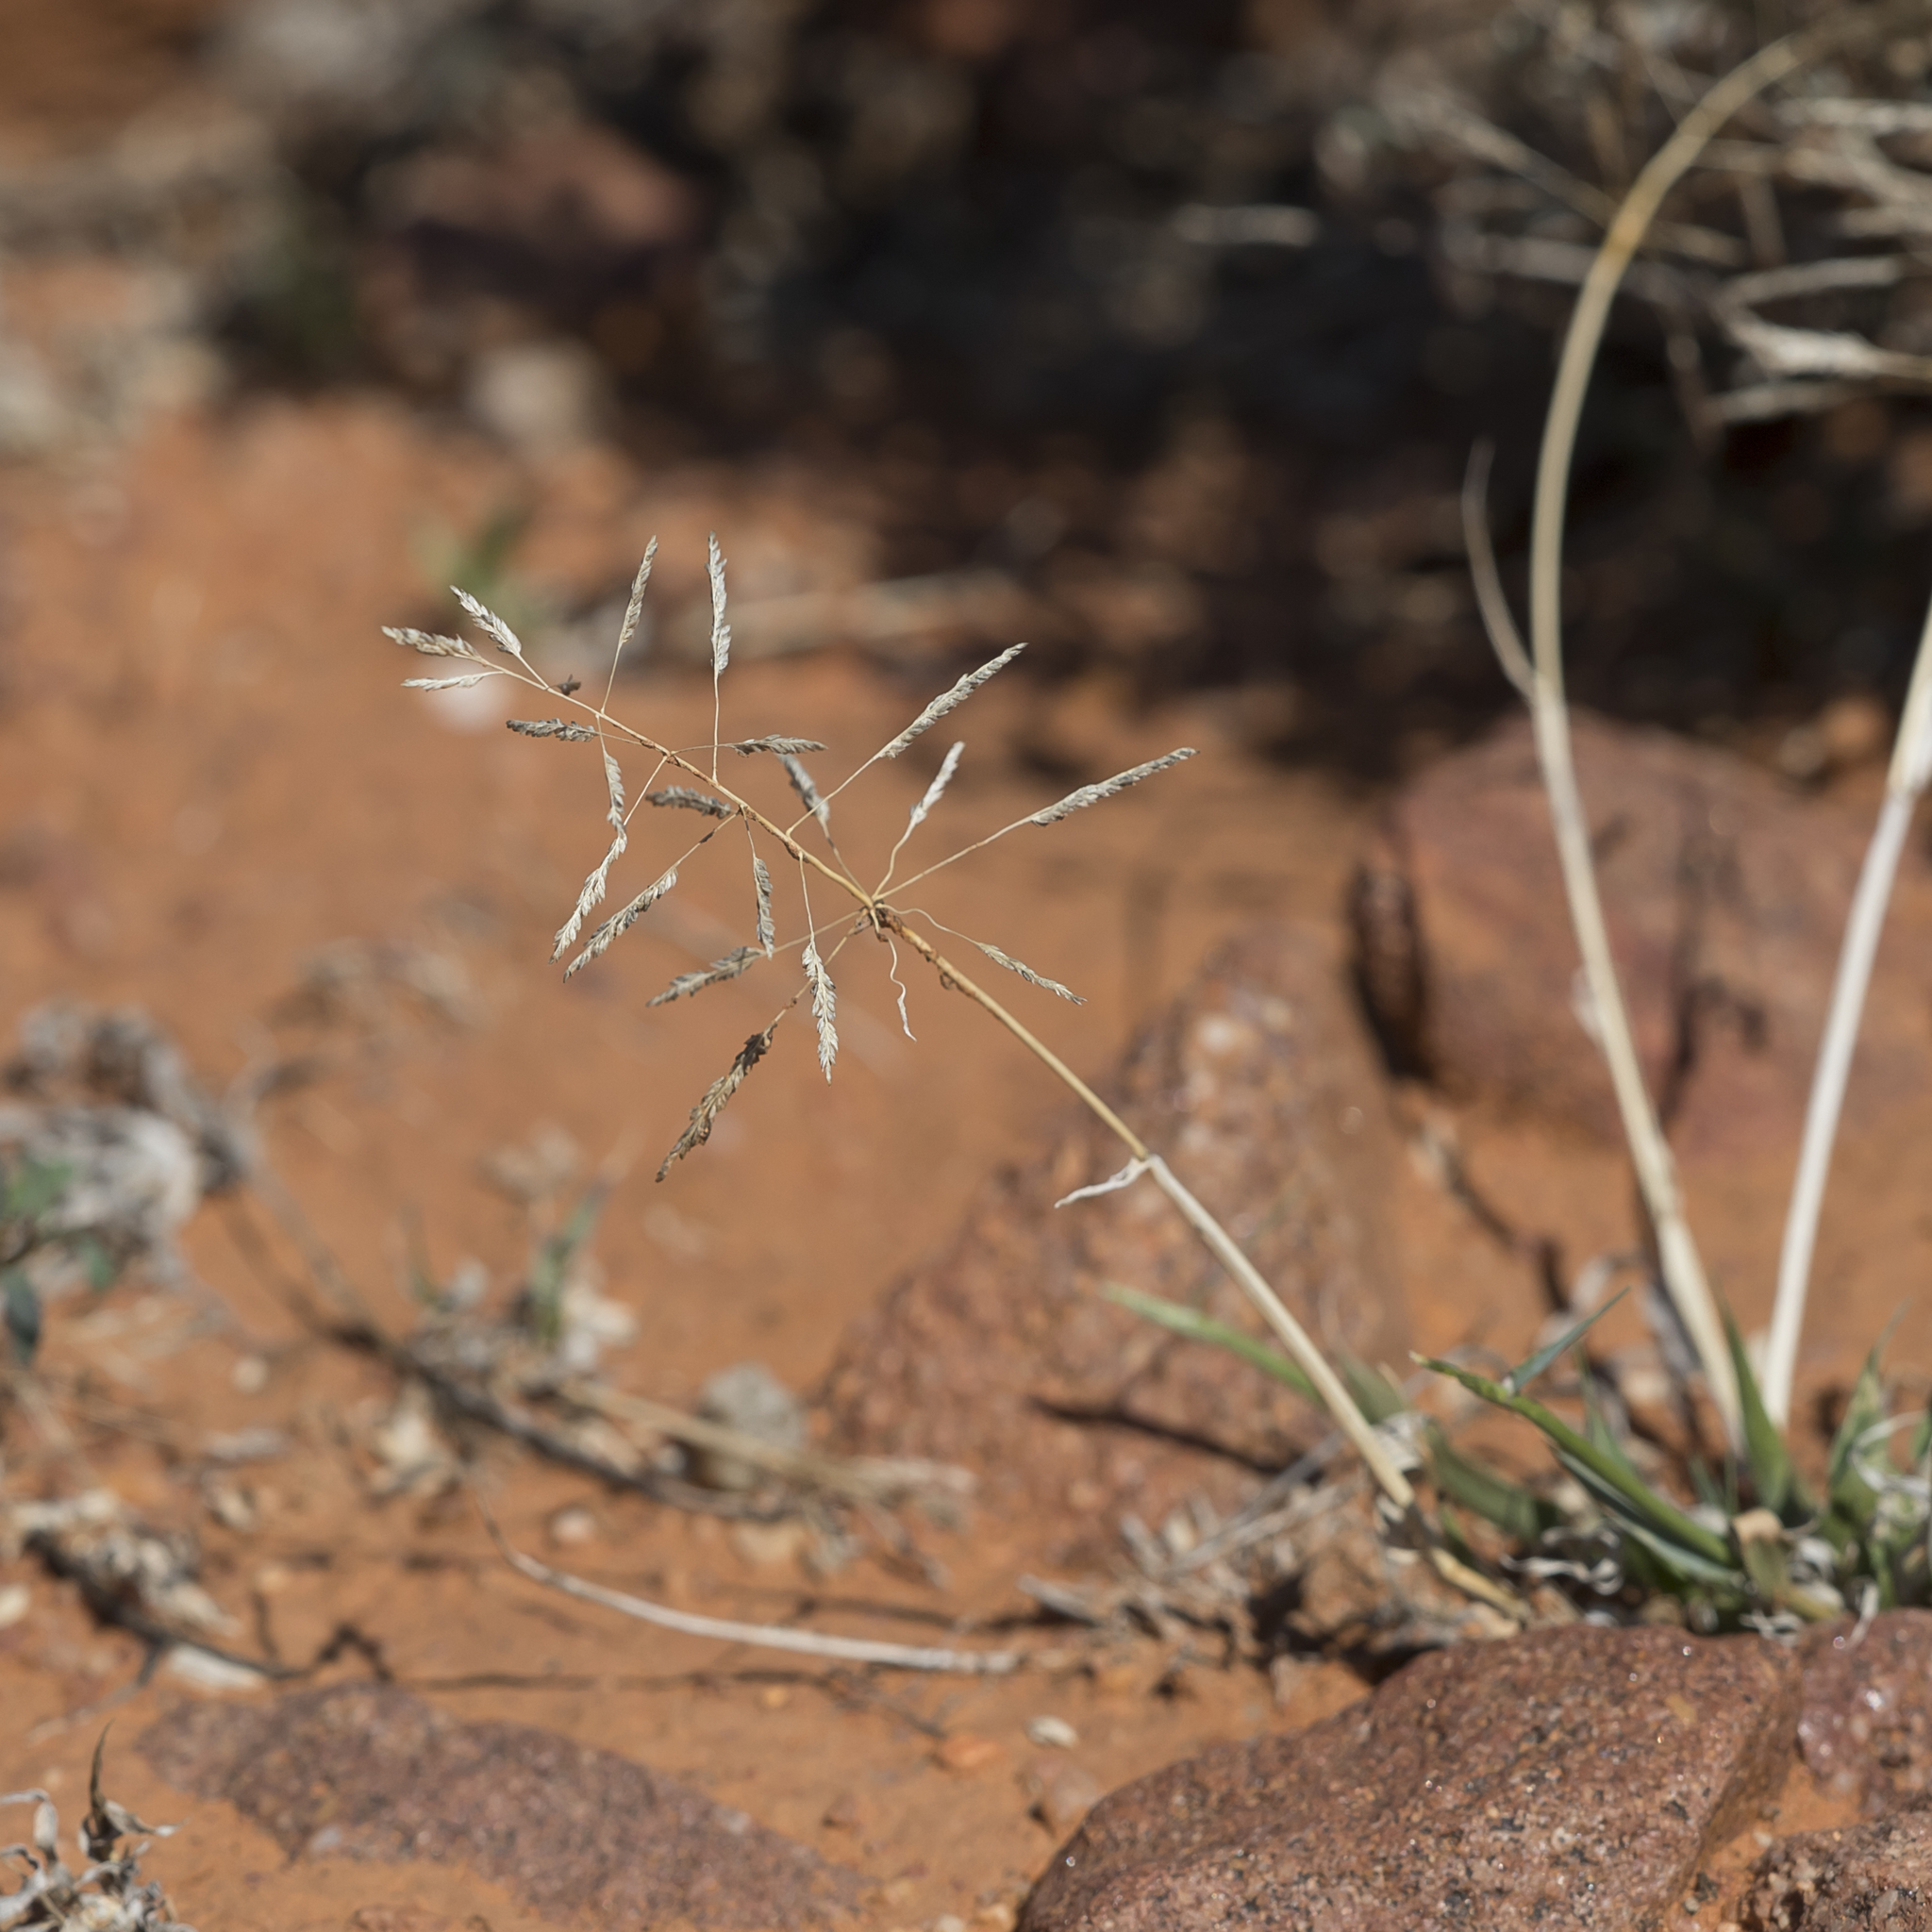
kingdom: Plantae
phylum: Tracheophyta
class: Liliopsida
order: Poales
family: Poaceae
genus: Sporobolus
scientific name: Sporobolus actinocladus
